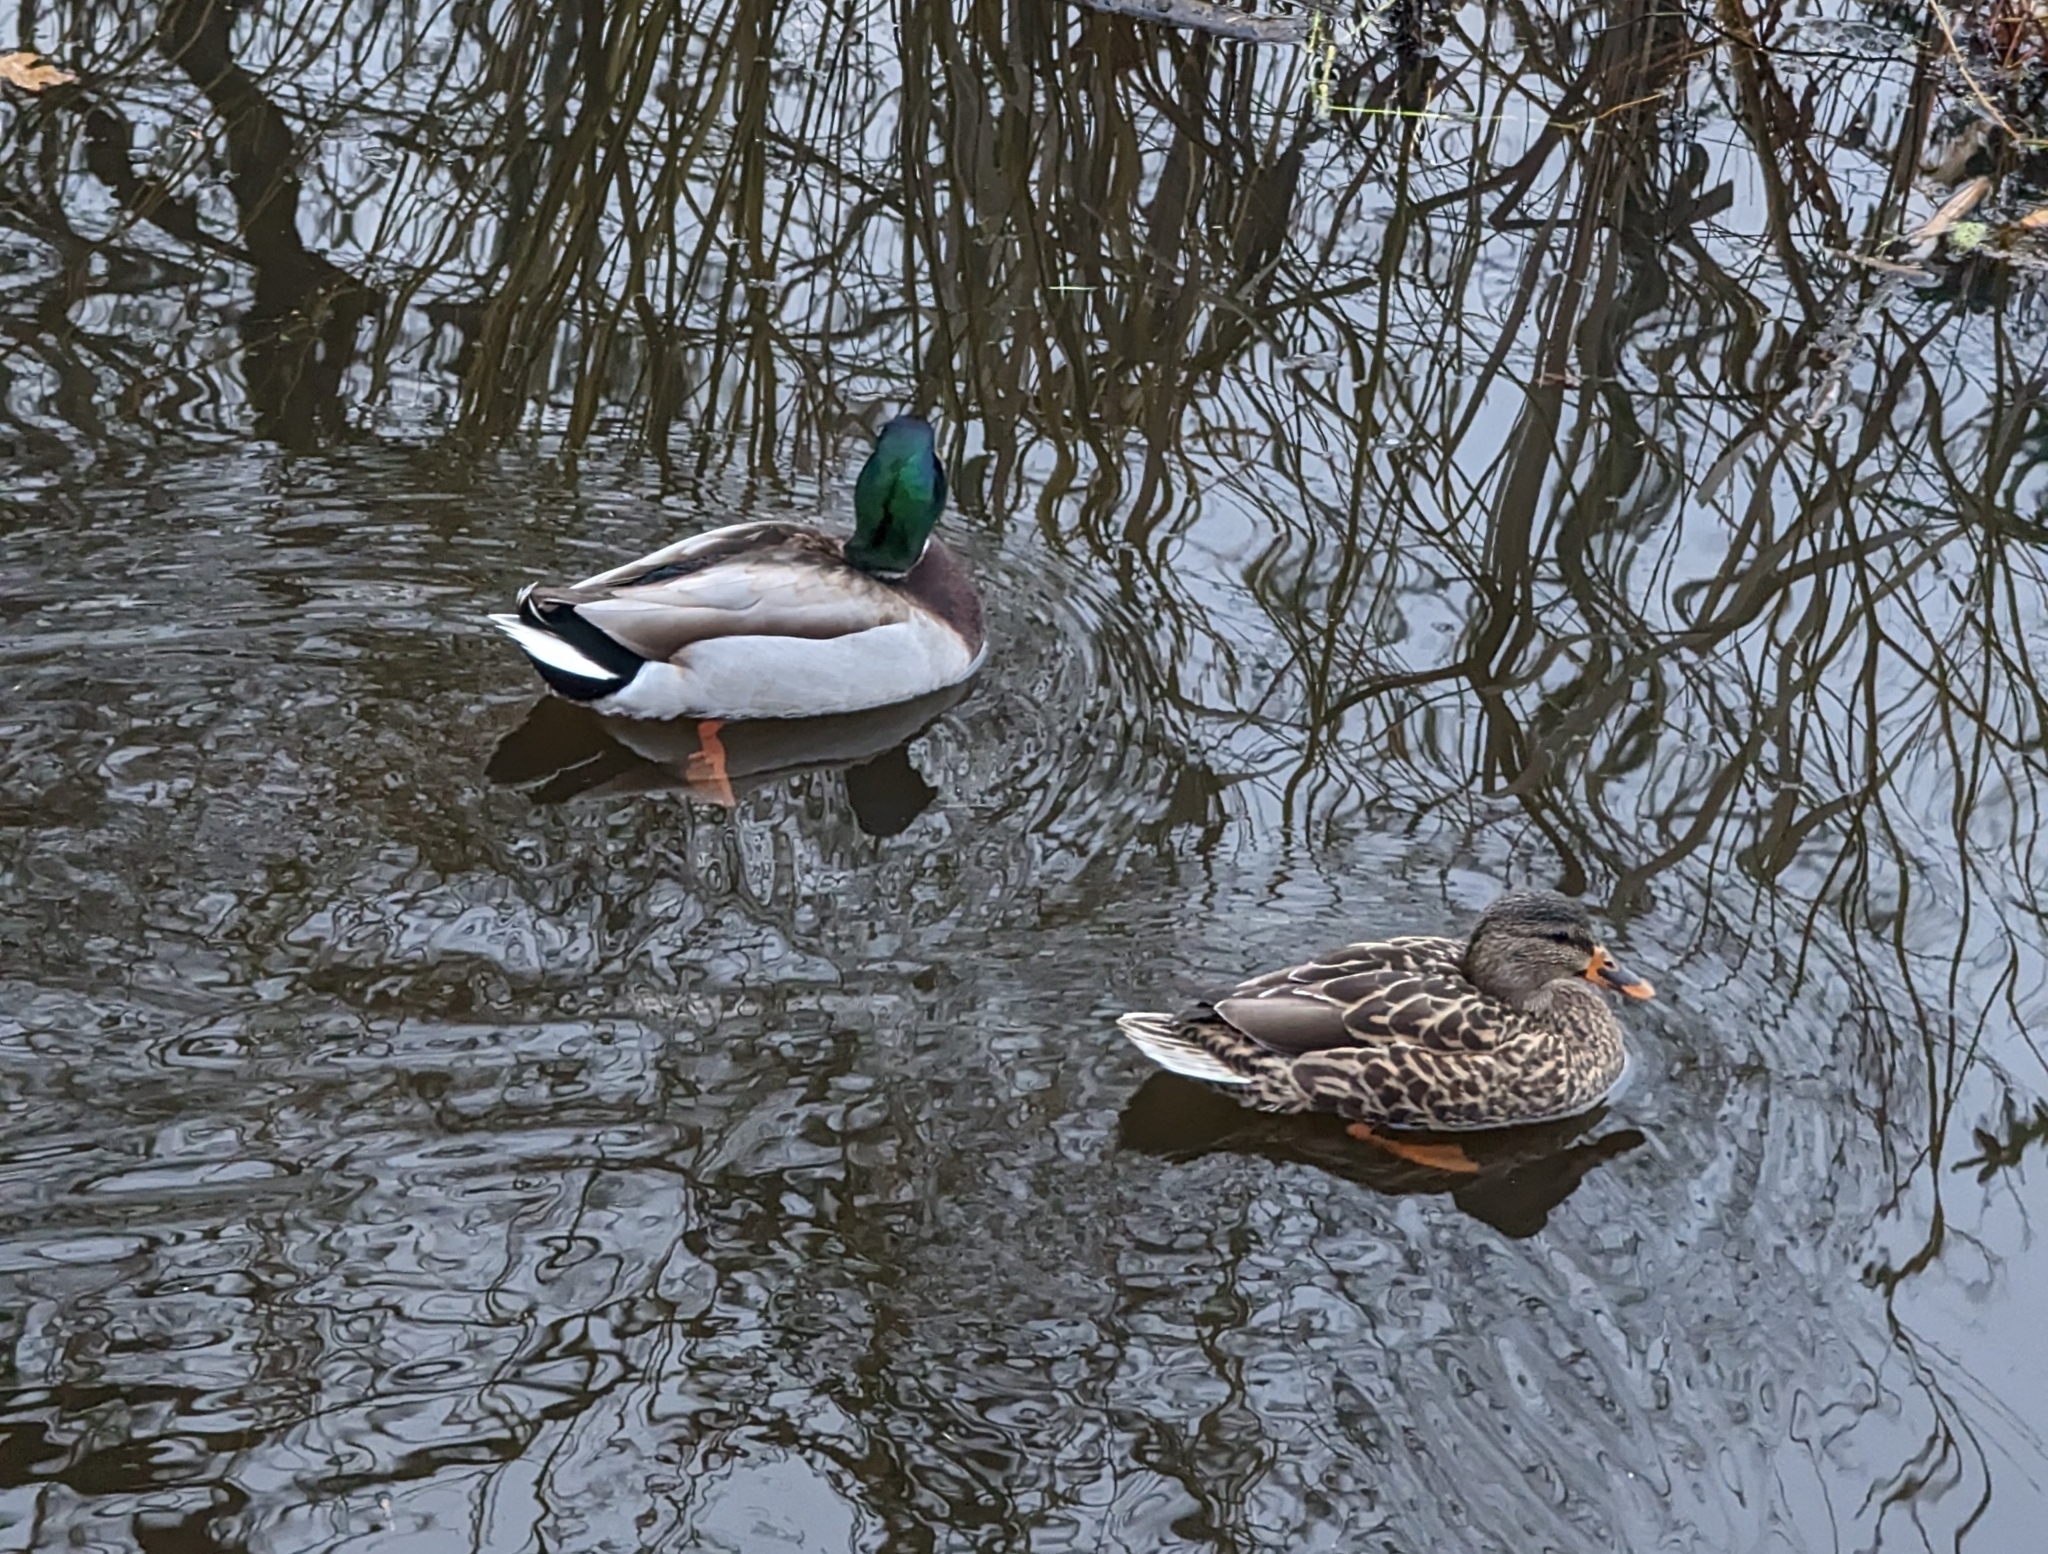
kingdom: Animalia
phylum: Chordata
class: Aves
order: Anseriformes
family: Anatidae
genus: Anas
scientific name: Anas platyrhynchos
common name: Mallard
